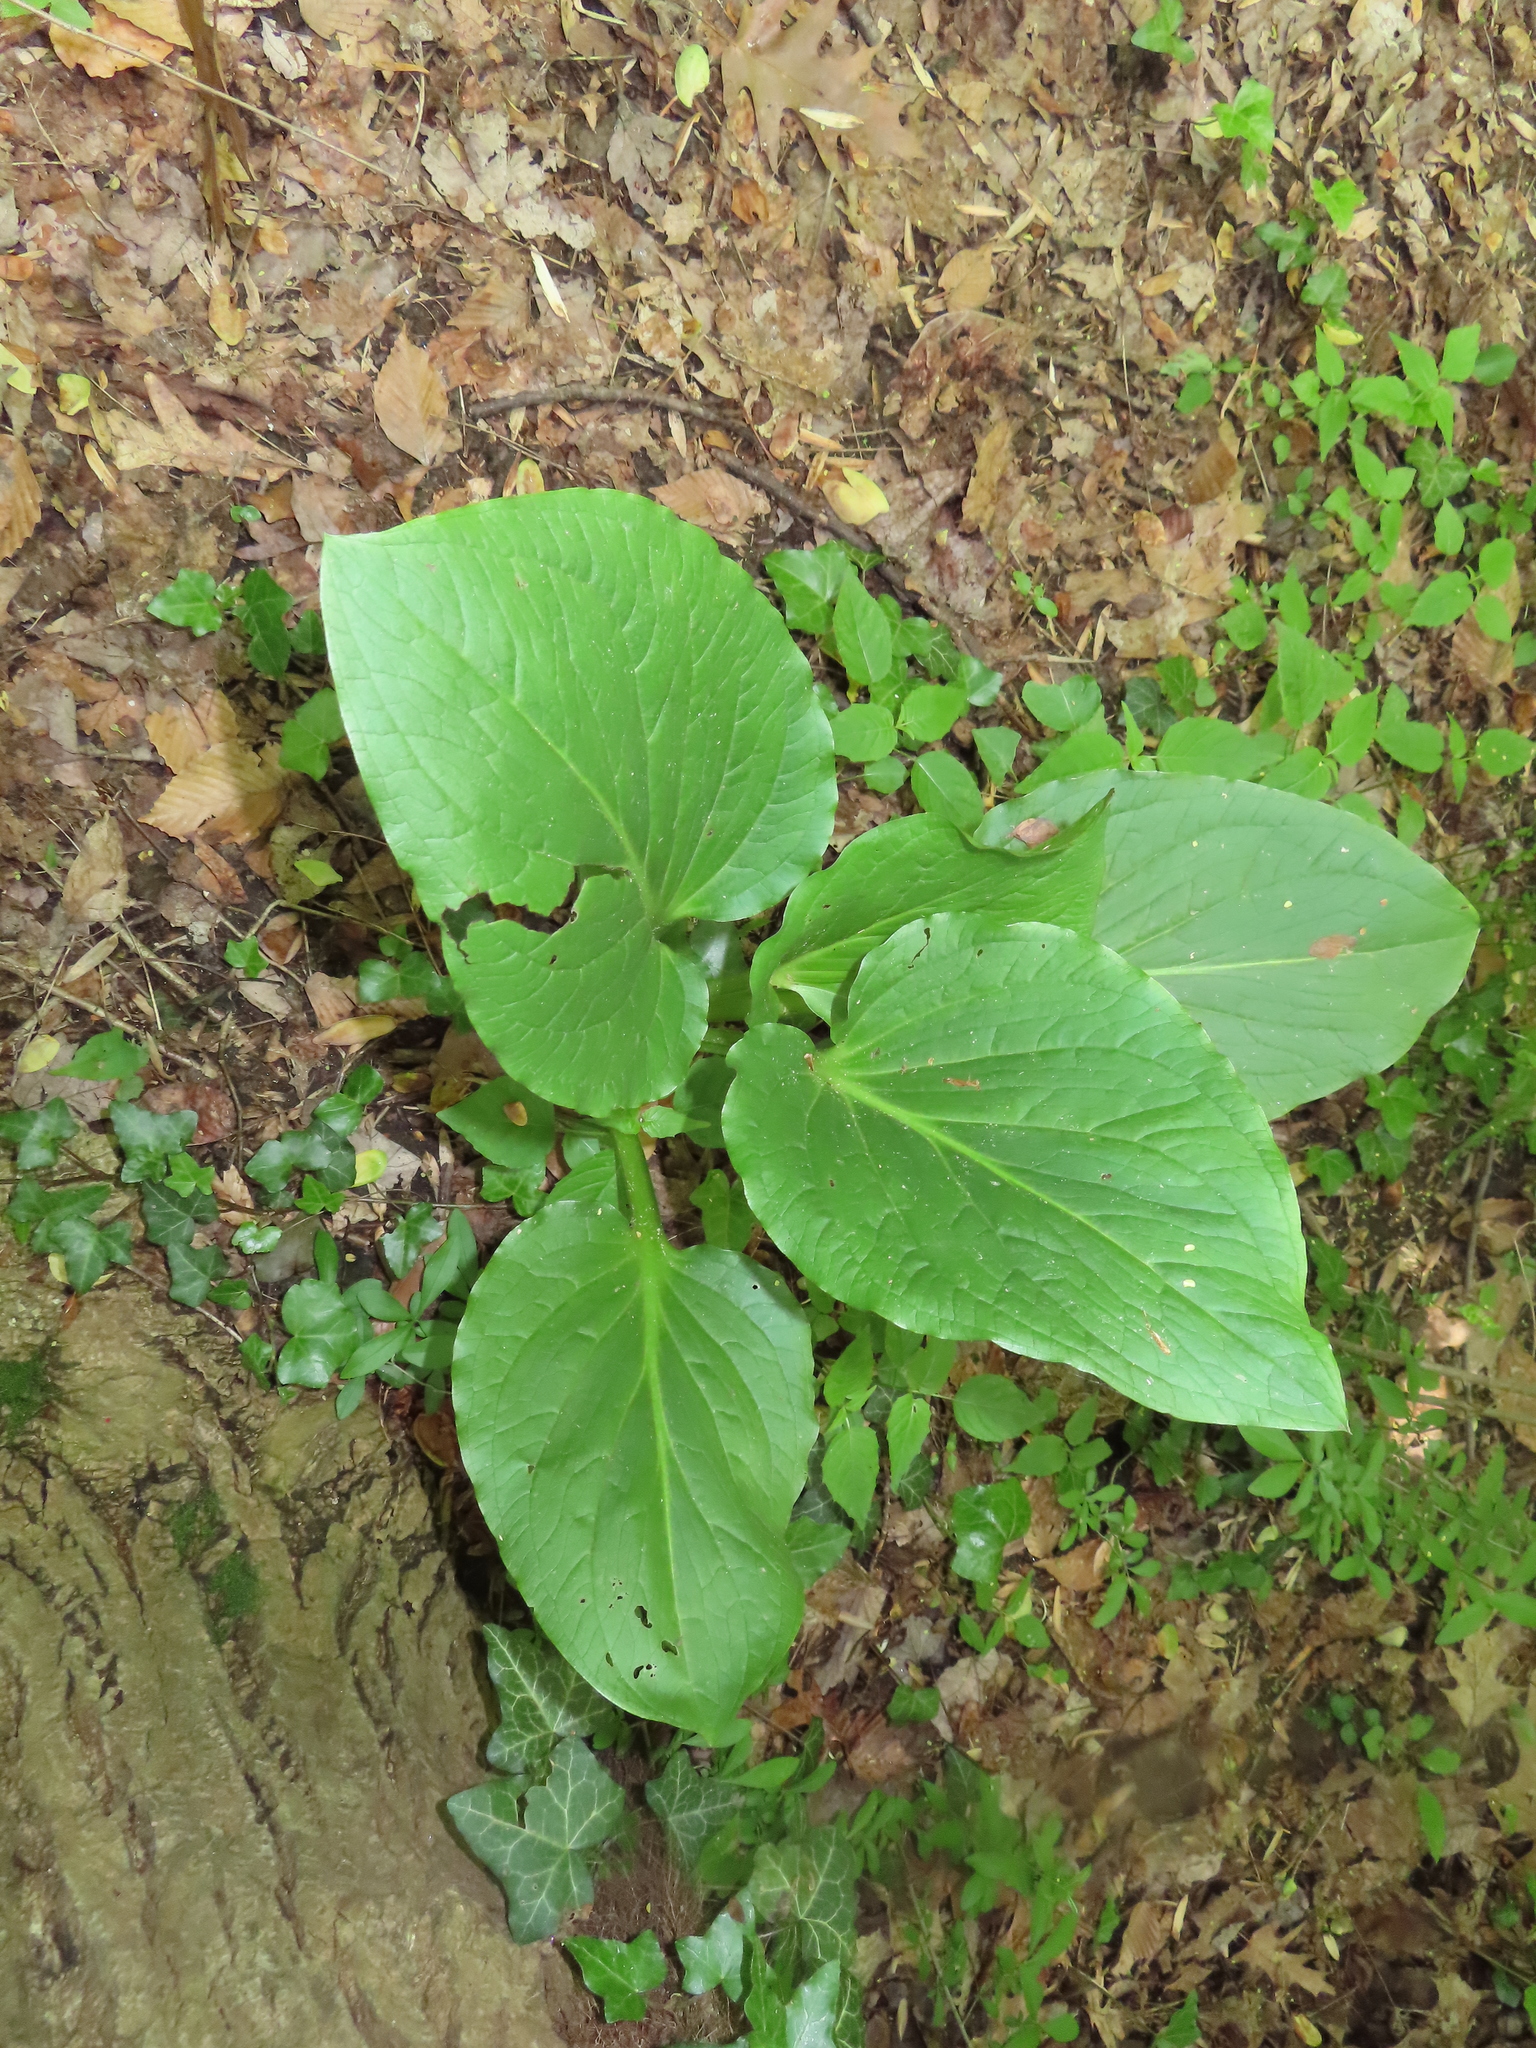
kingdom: Plantae
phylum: Tracheophyta
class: Liliopsida
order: Alismatales
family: Araceae
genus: Symplocarpus
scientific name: Symplocarpus foetidus
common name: Eastern skunk cabbage
